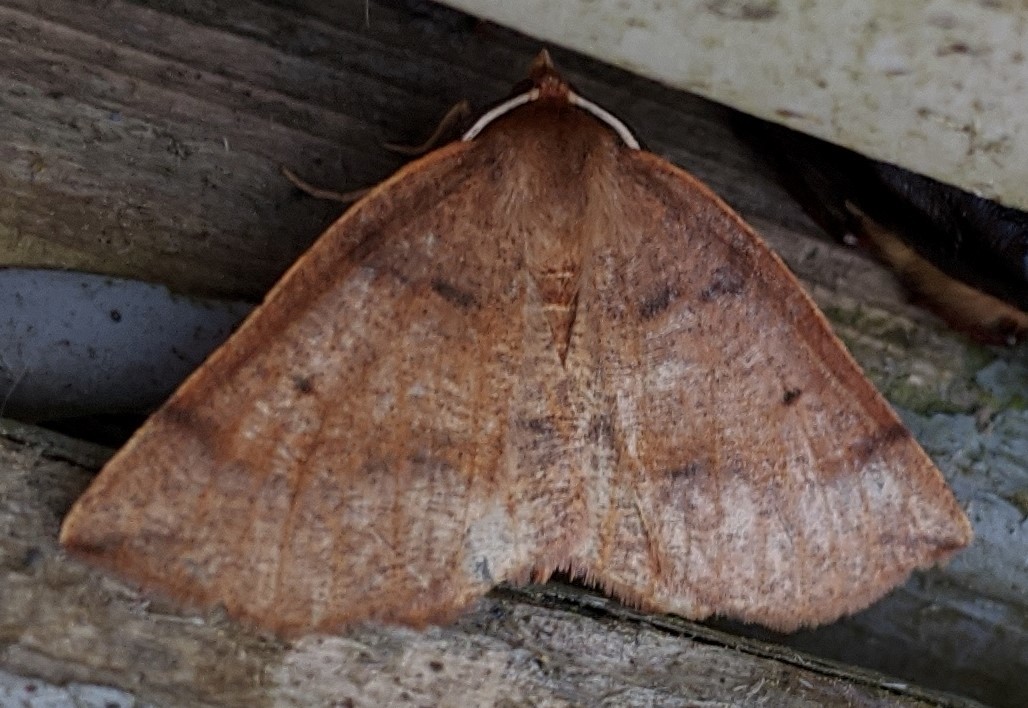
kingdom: Animalia
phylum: Arthropoda
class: Insecta
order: Lepidoptera
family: Geometridae
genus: Metarranthis
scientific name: Metarranthis duaria
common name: Ruddy metarranthis moth
